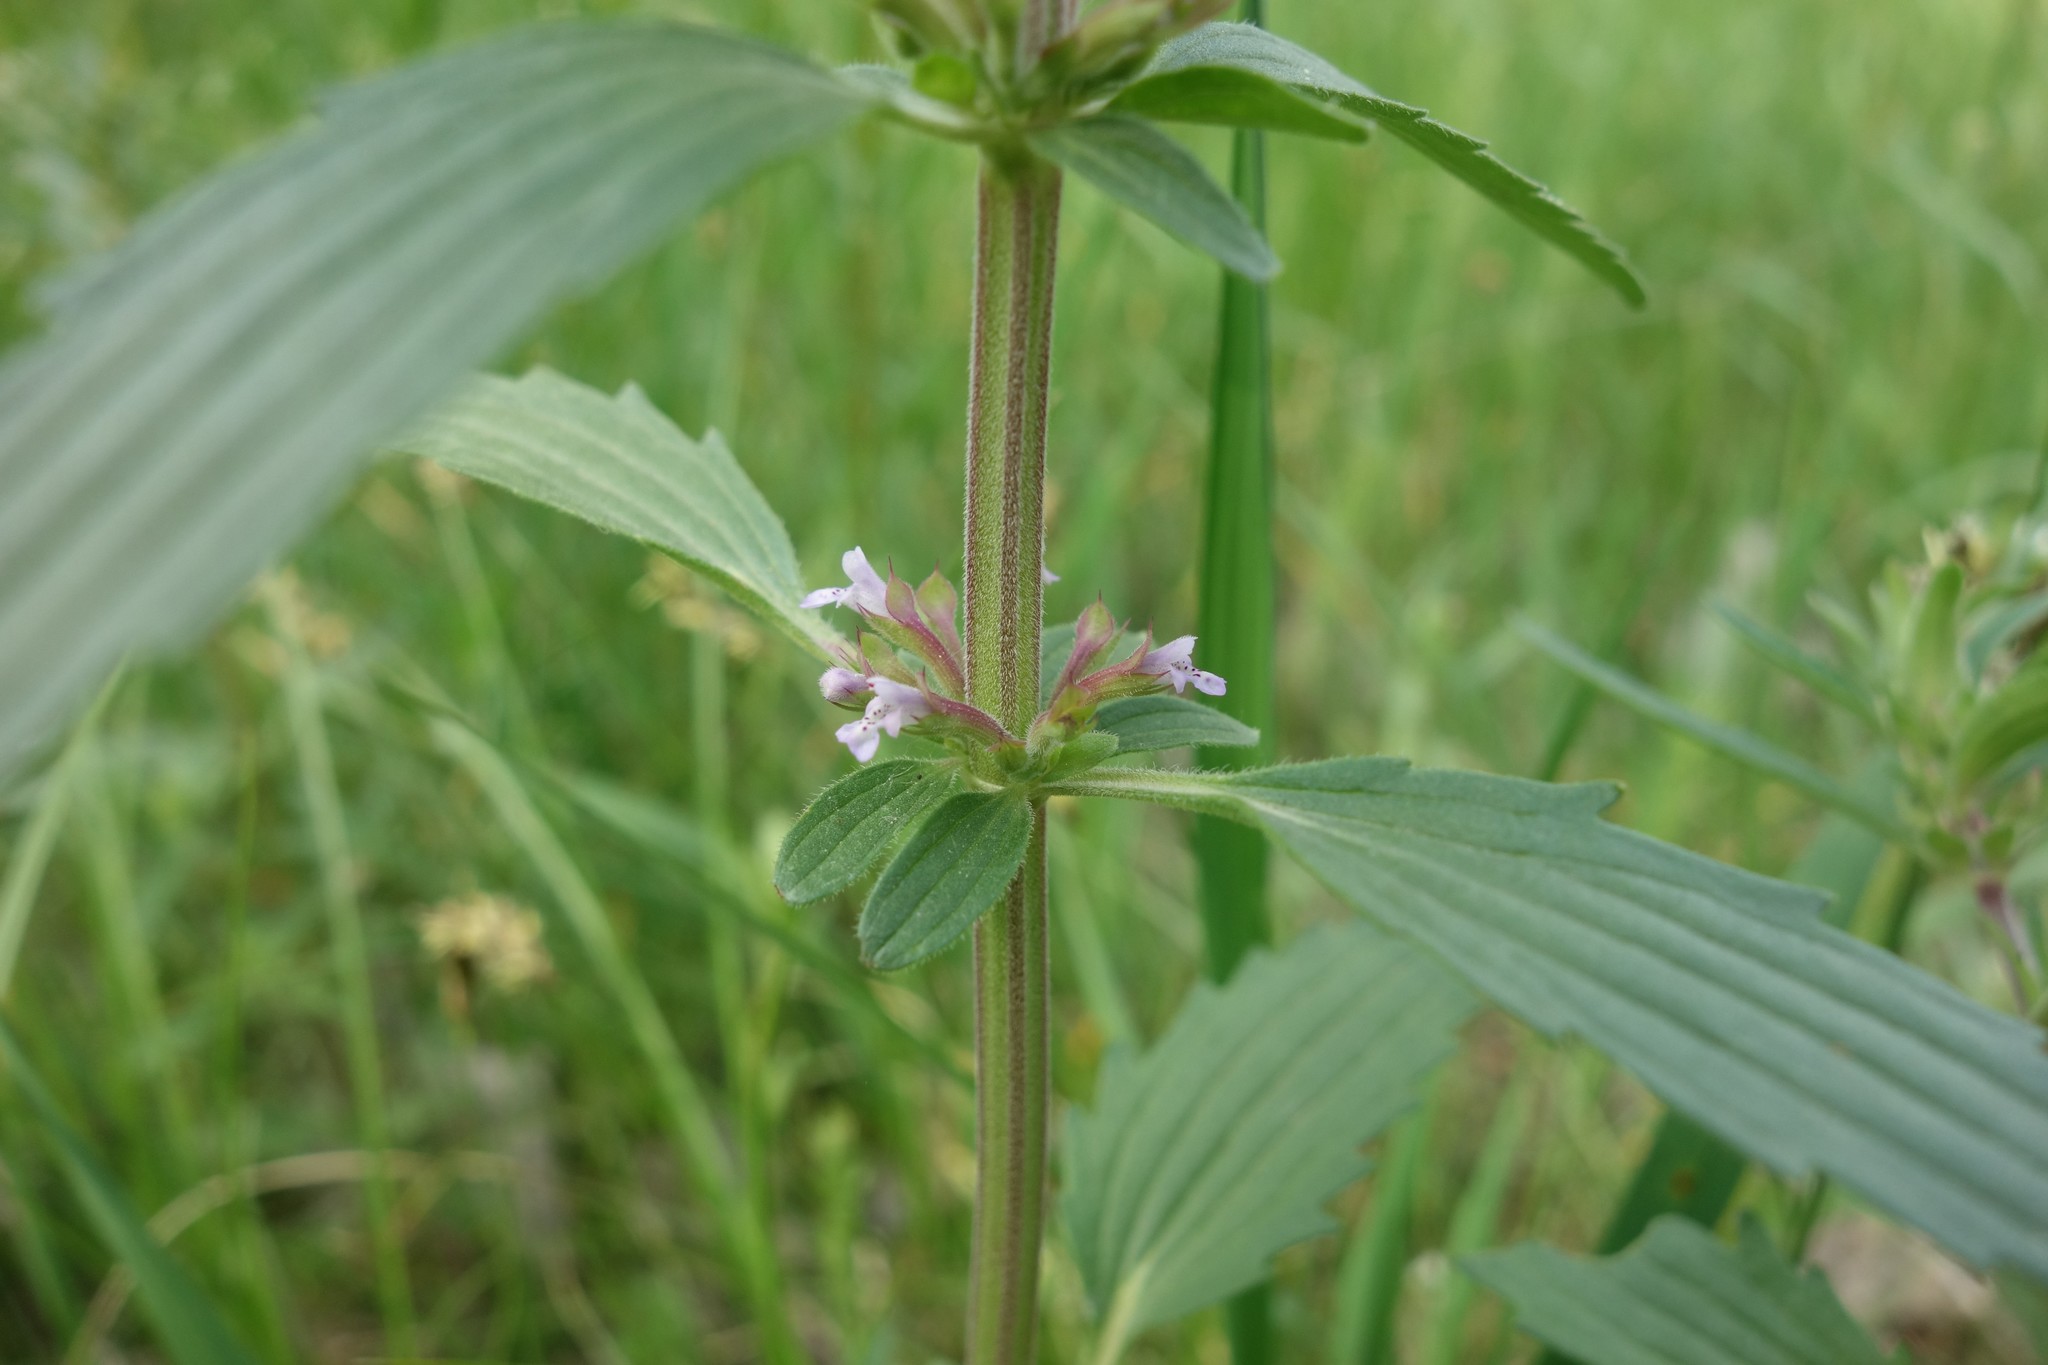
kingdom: Plantae
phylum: Tracheophyta
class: Magnoliopsida
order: Lamiales
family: Lamiaceae
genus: Dracocephalum
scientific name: Dracocephalum thymiflorum
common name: Thymeleaf dragonhead
